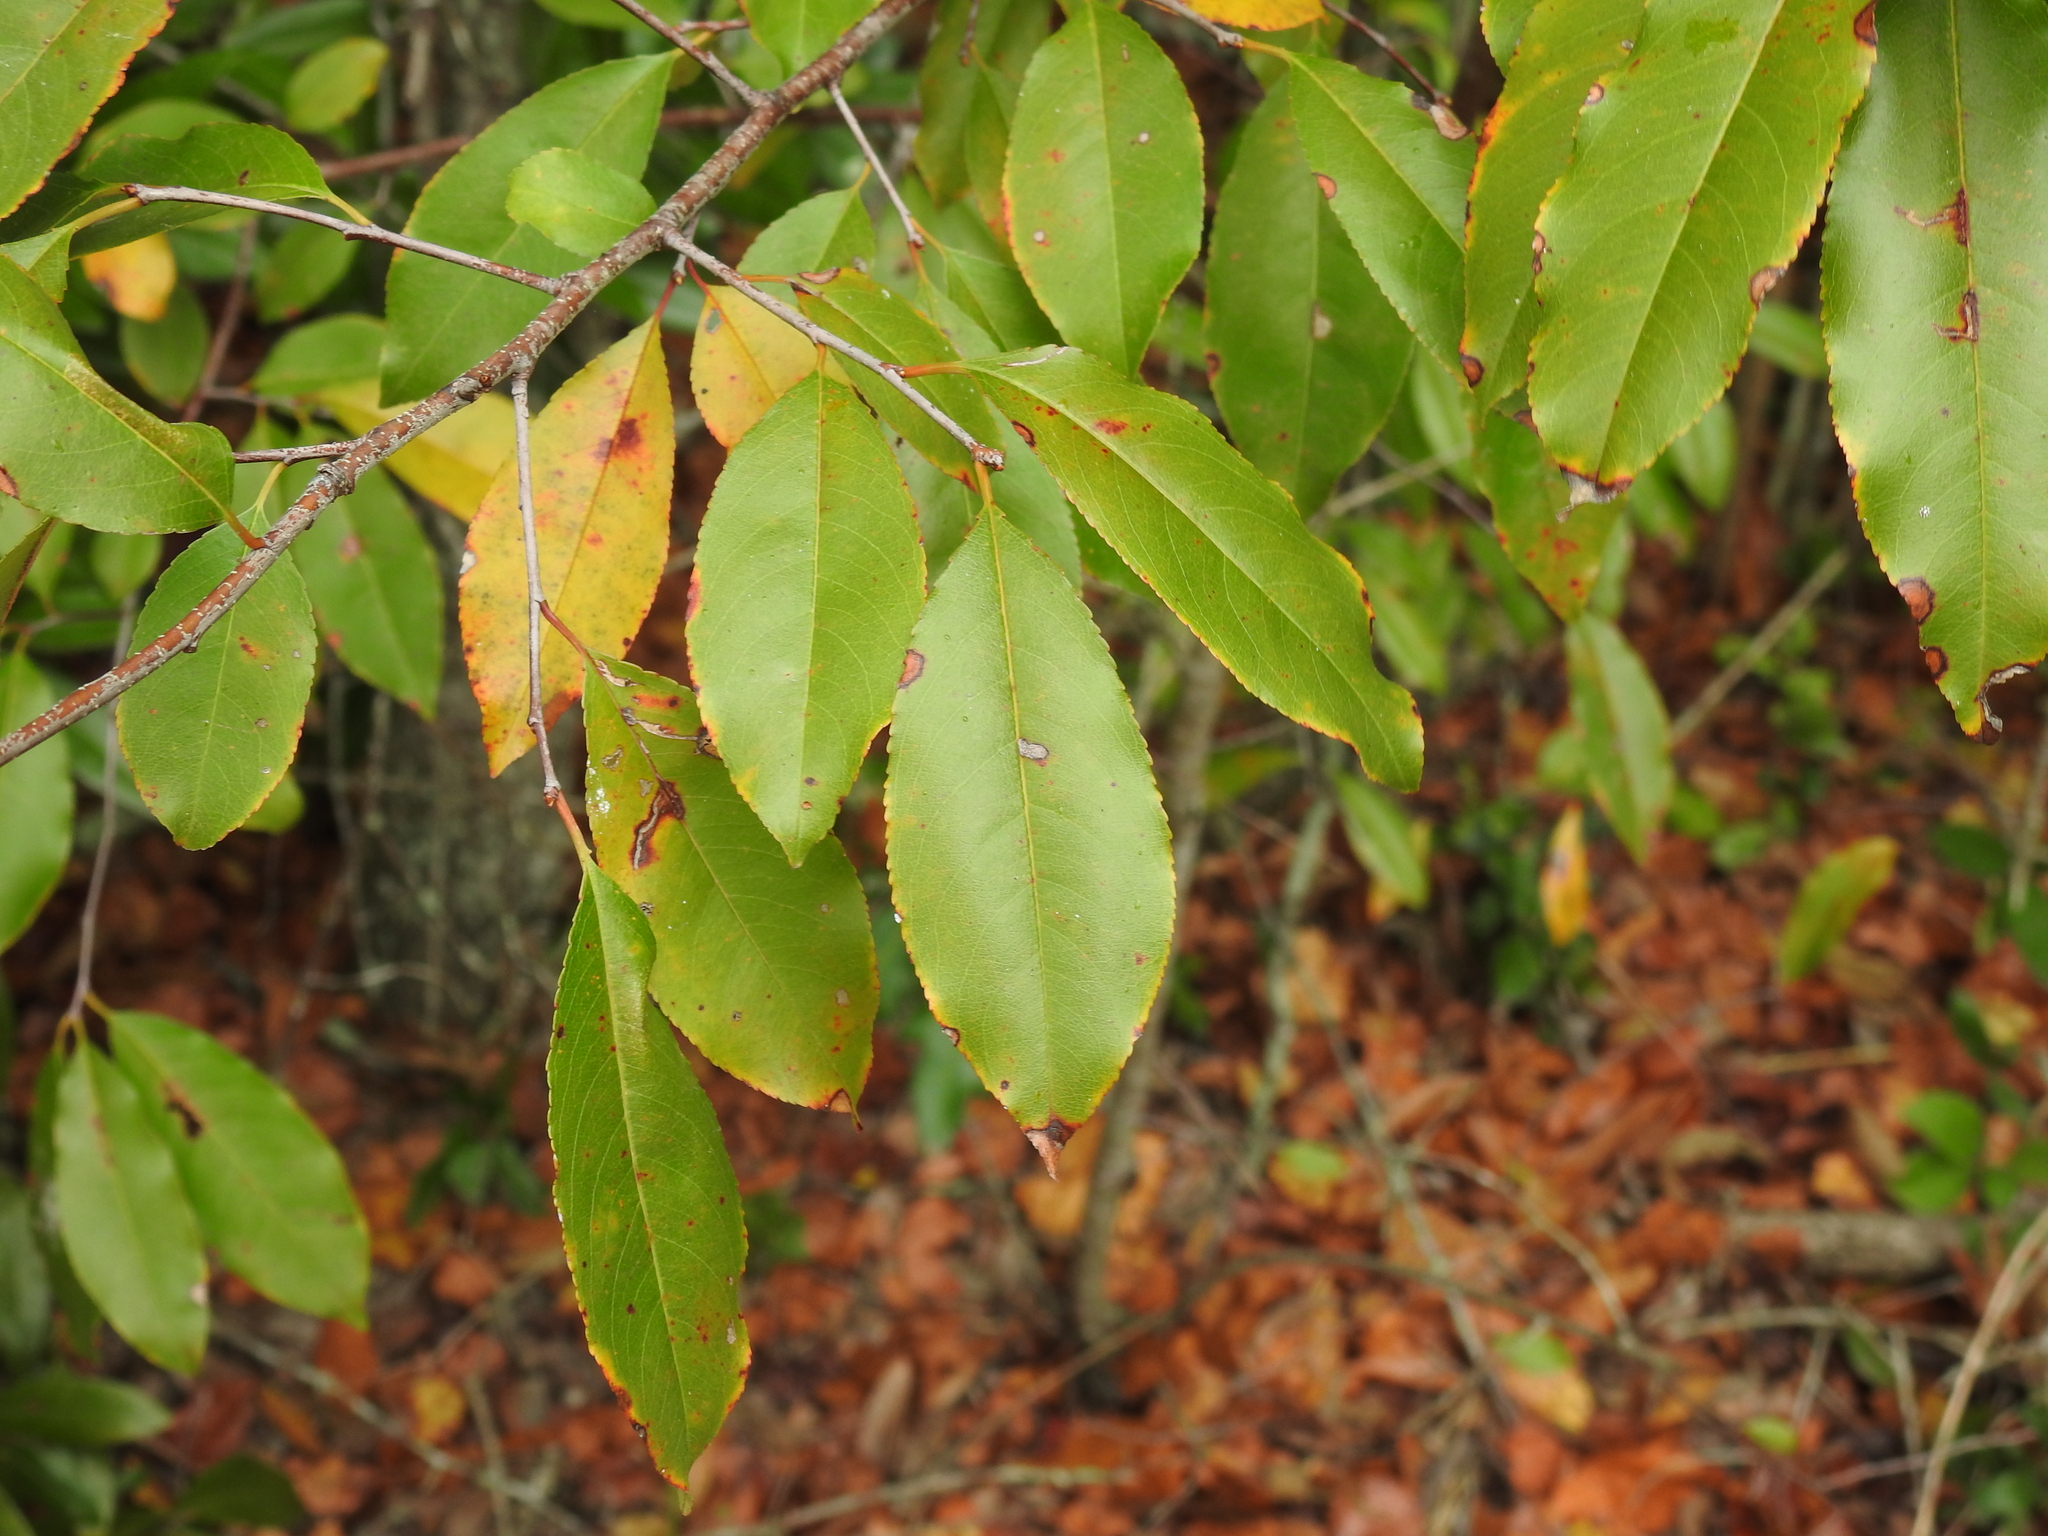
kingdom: Plantae
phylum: Tracheophyta
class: Magnoliopsida
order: Rosales
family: Rosaceae
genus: Prunus
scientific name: Prunus serotina
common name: Black cherry
